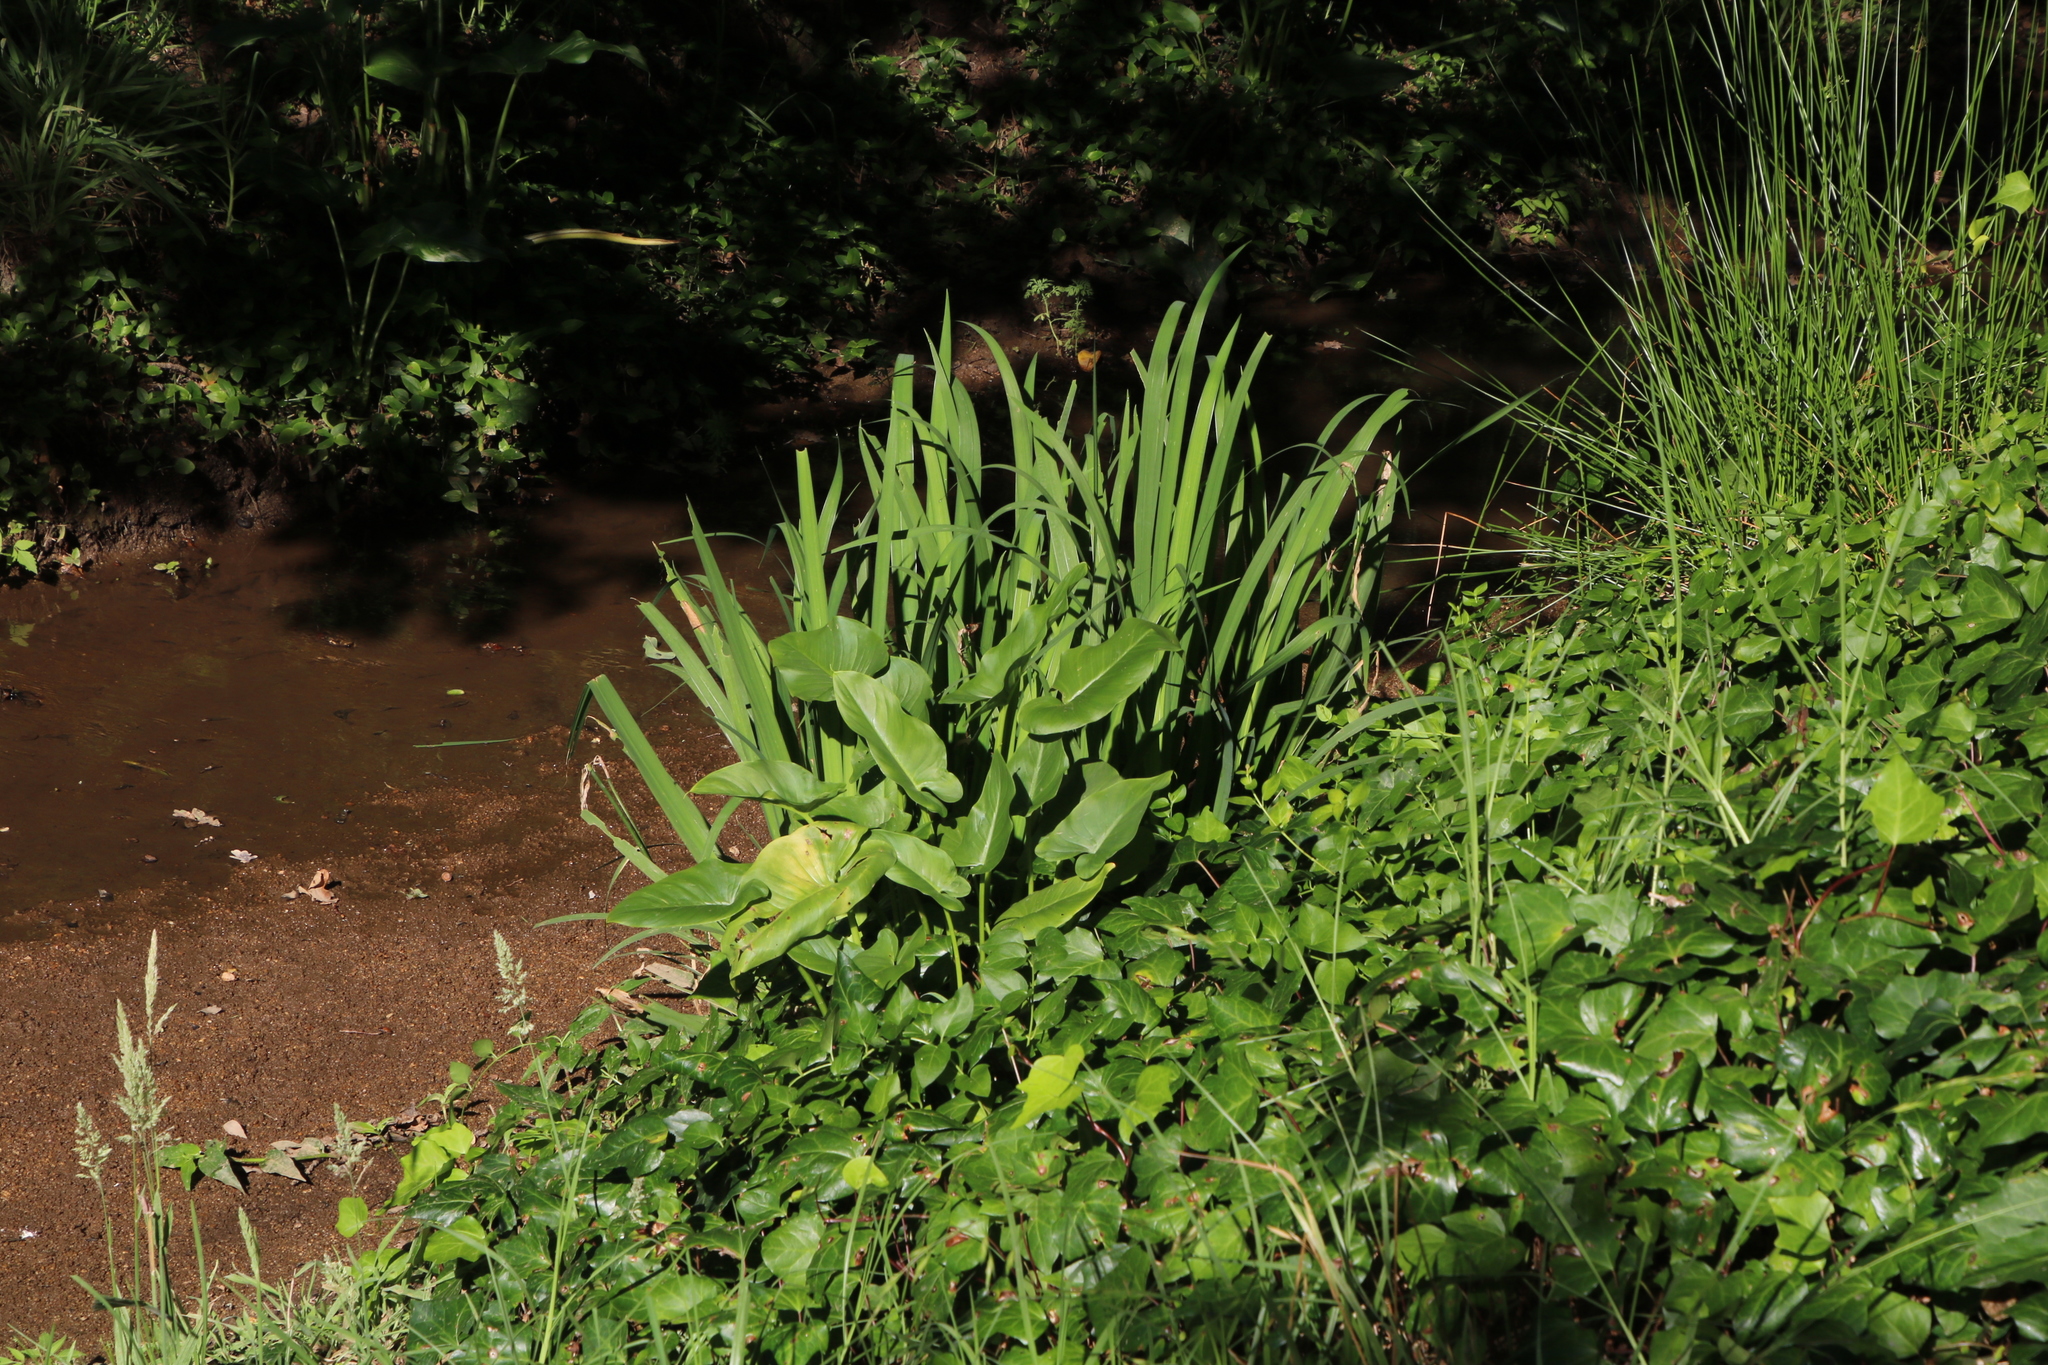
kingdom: Plantae
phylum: Tracheophyta
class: Liliopsida
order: Alismatales
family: Araceae
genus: Zantedeschia
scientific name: Zantedeschia aethiopica
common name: Altar-lily
